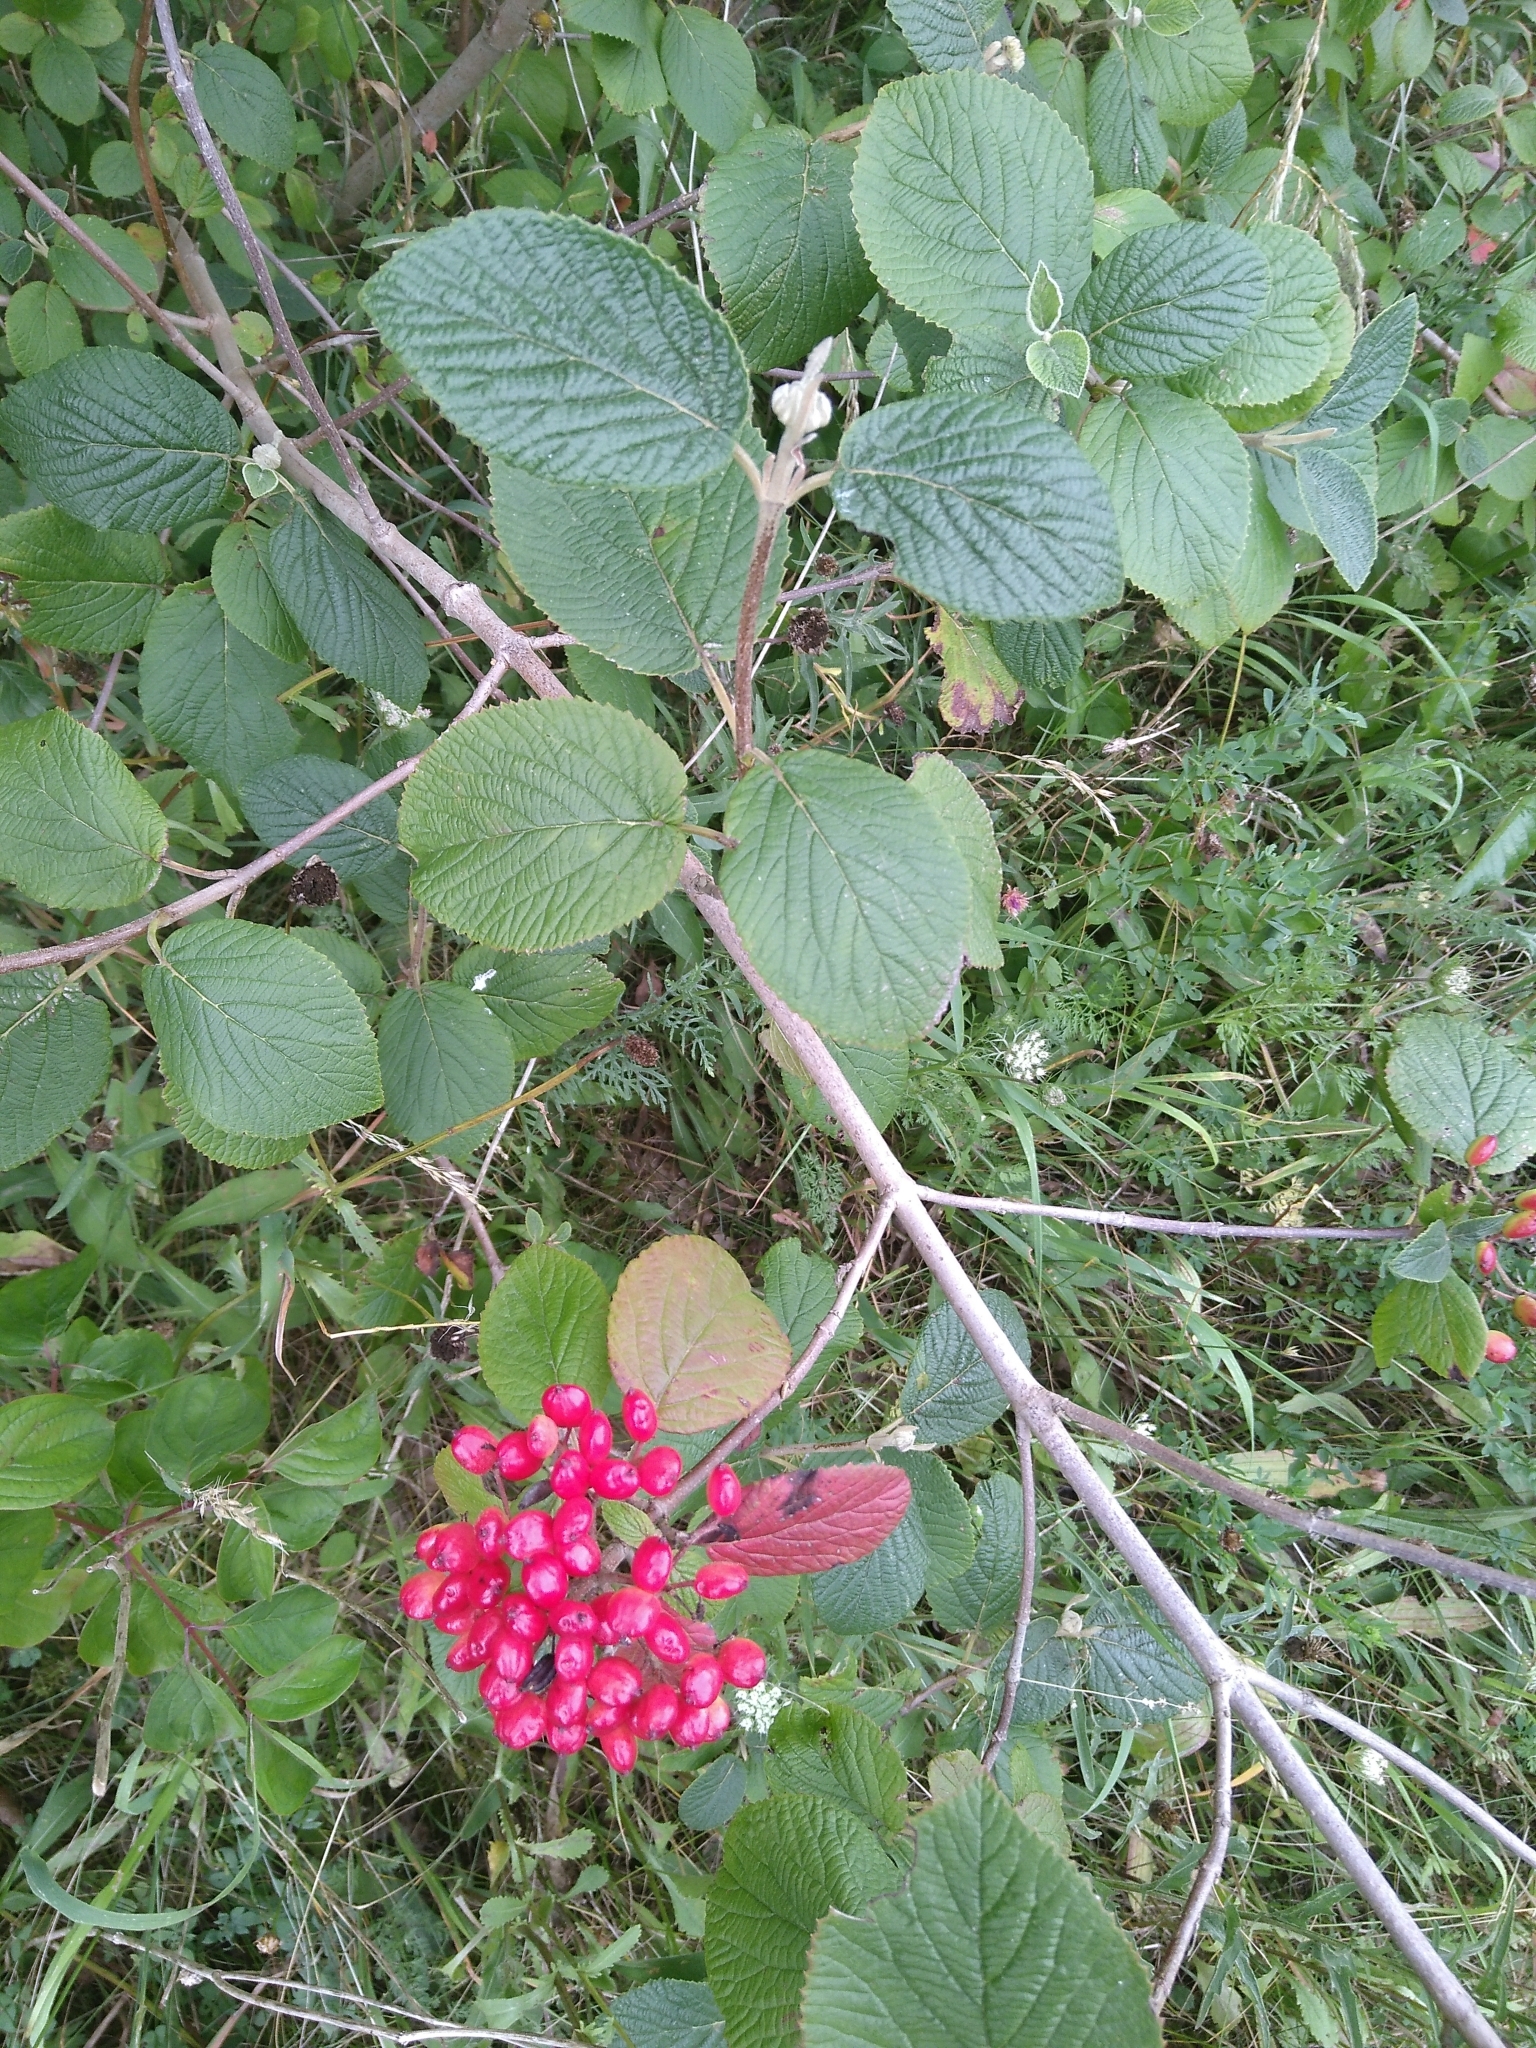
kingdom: Plantae
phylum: Tracheophyta
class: Magnoliopsida
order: Dipsacales
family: Viburnaceae
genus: Viburnum
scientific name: Viburnum lantana
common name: Wayfaring tree
